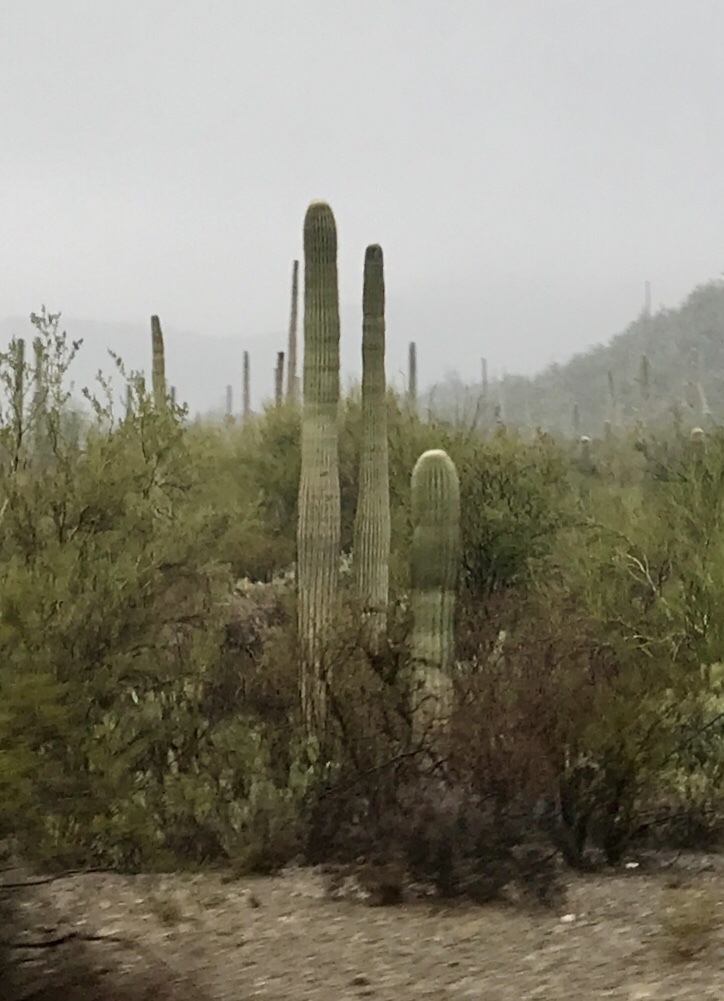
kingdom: Plantae
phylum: Tracheophyta
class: Magnoliopsida
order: Caryophyllales
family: Cactaceae
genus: Carnegiea
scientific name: Carnegiea gigantea
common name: Saguaro
